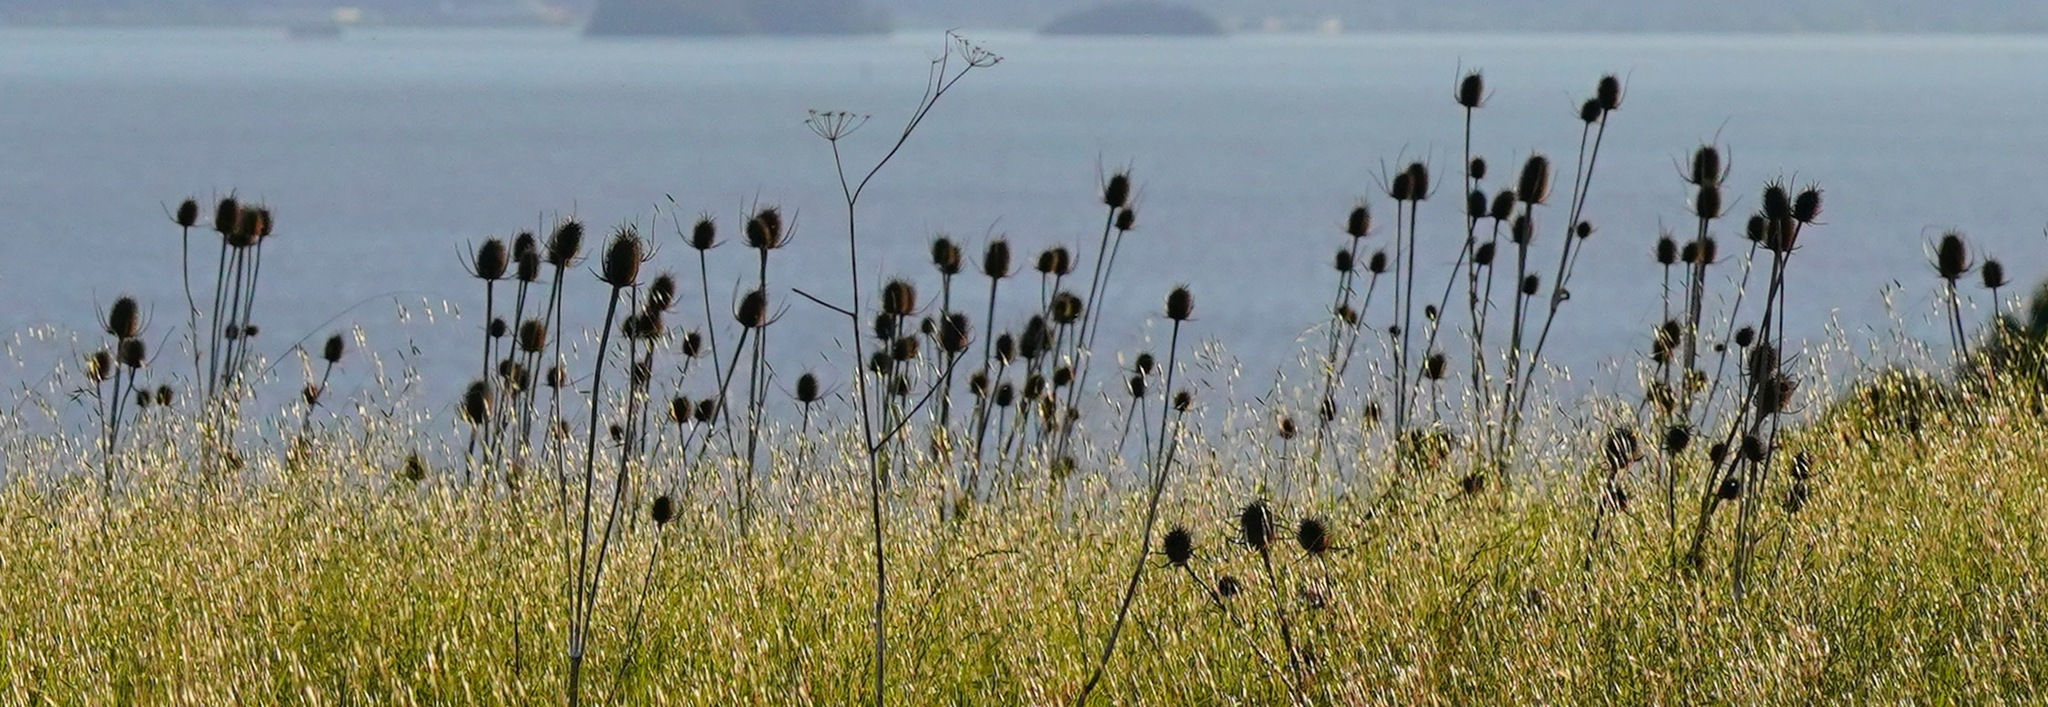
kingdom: Plantae
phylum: Tracheophyta
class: Magnoliopsida
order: Dipsacales
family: Caprifoliaceae
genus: Dipsacus
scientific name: Dipsacus fullonum
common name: Teasel
